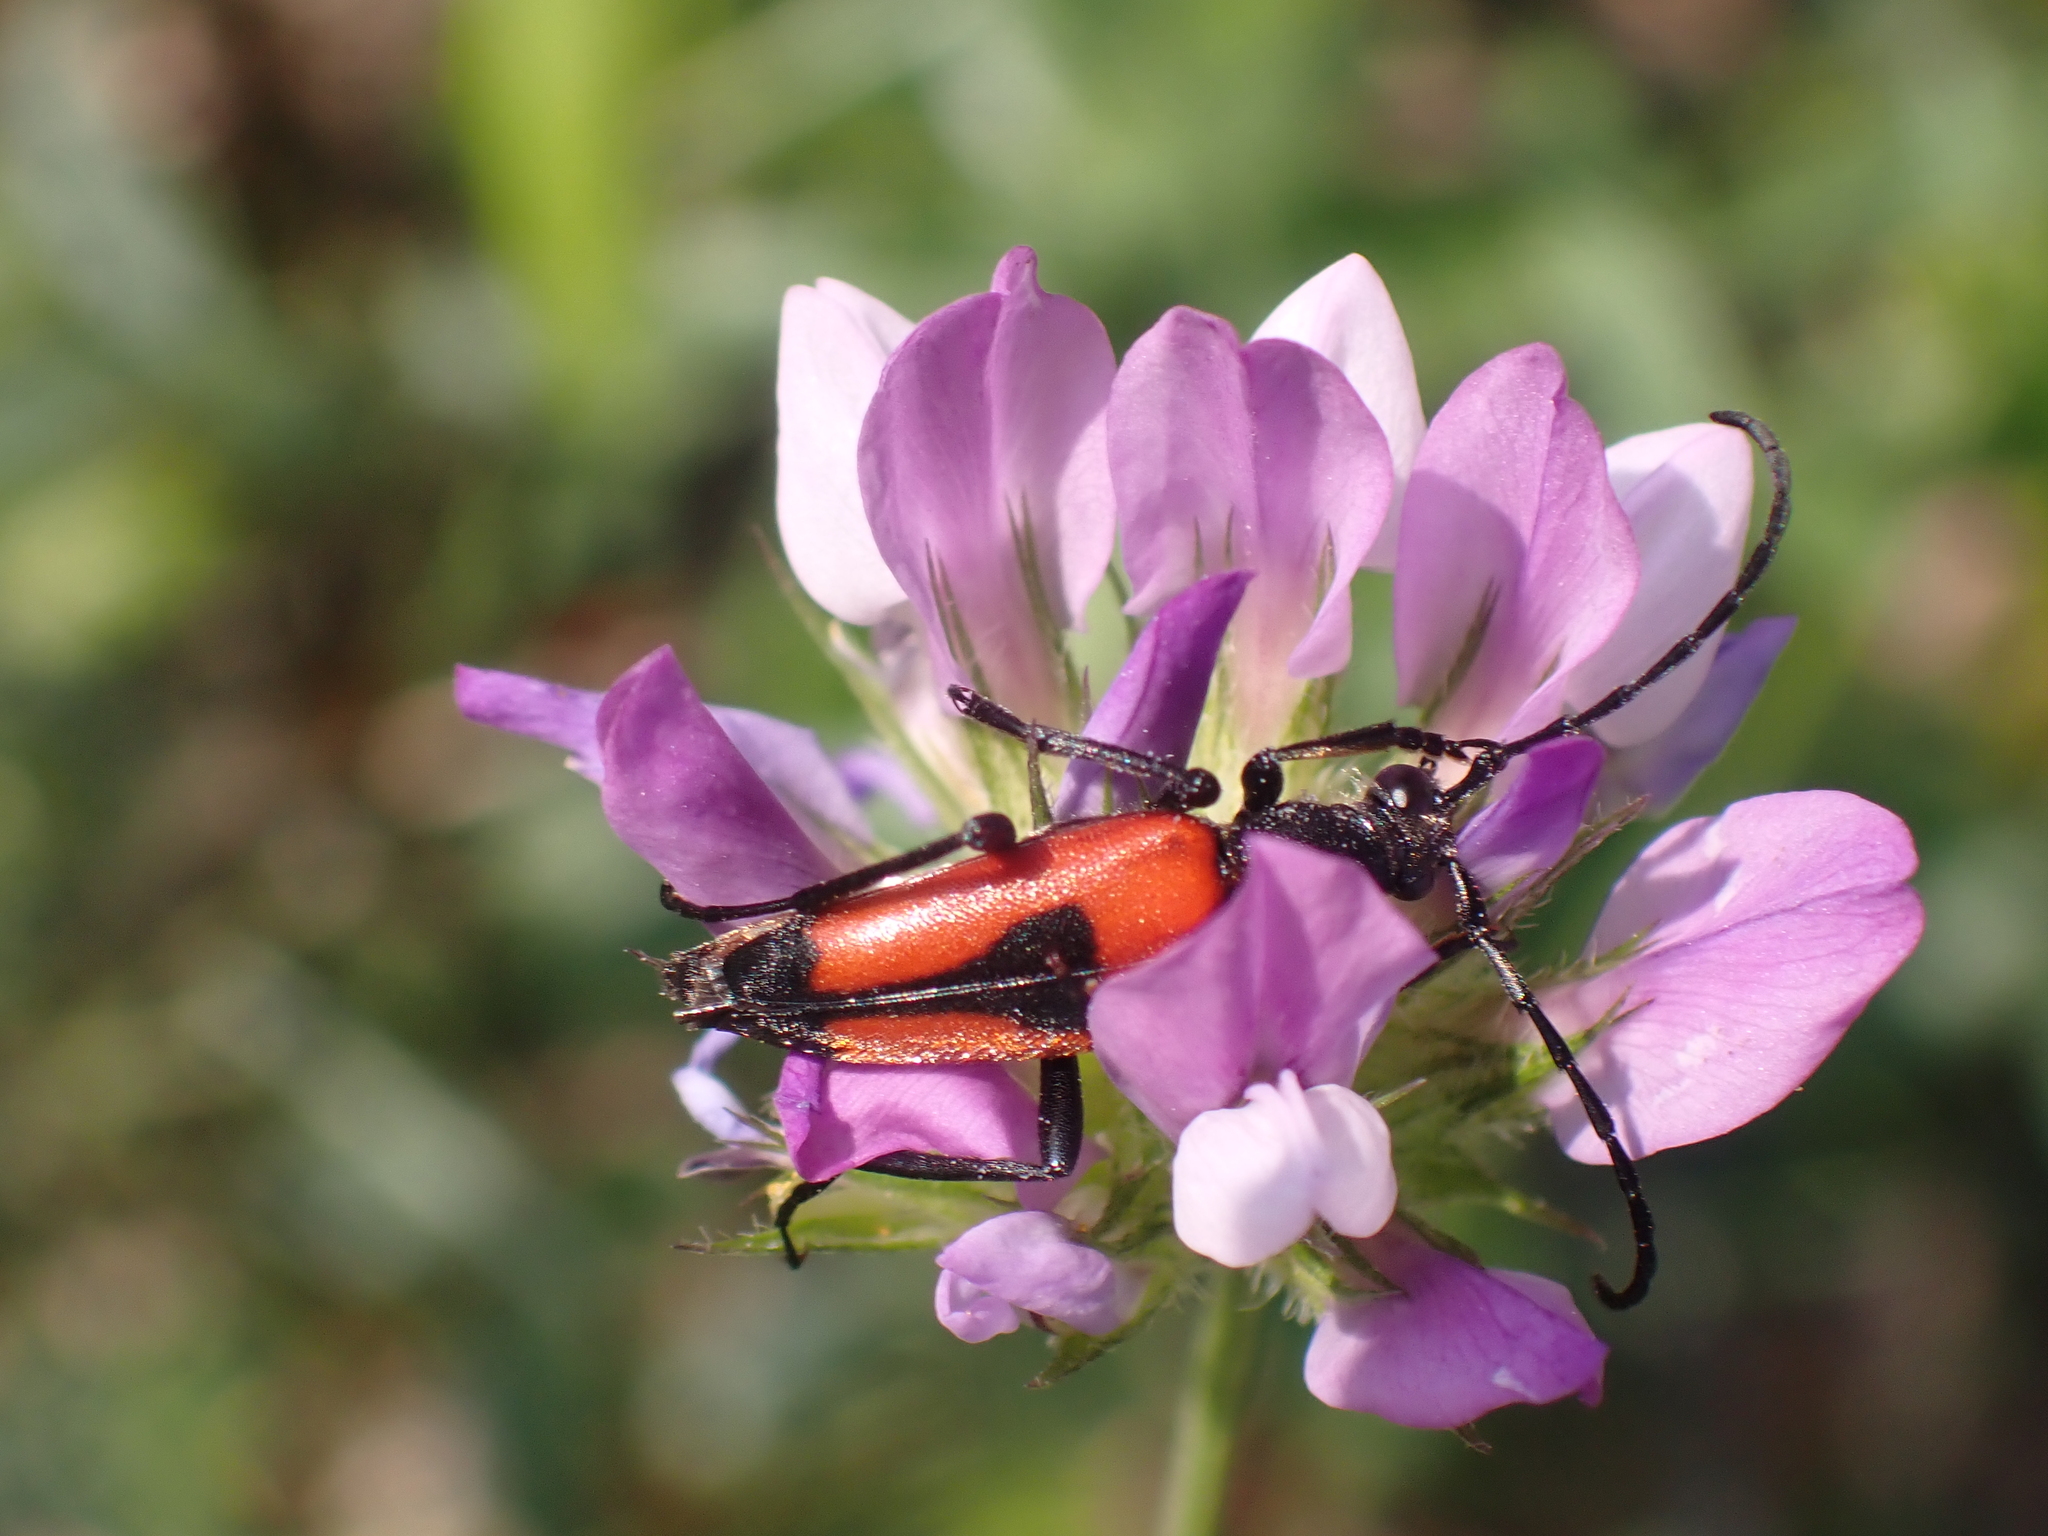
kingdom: Animalia
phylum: Arthropoda
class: Insecta
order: Coleoptera
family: Cerambycidae
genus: Stictoleptura
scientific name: Stictoleptura cordigera
